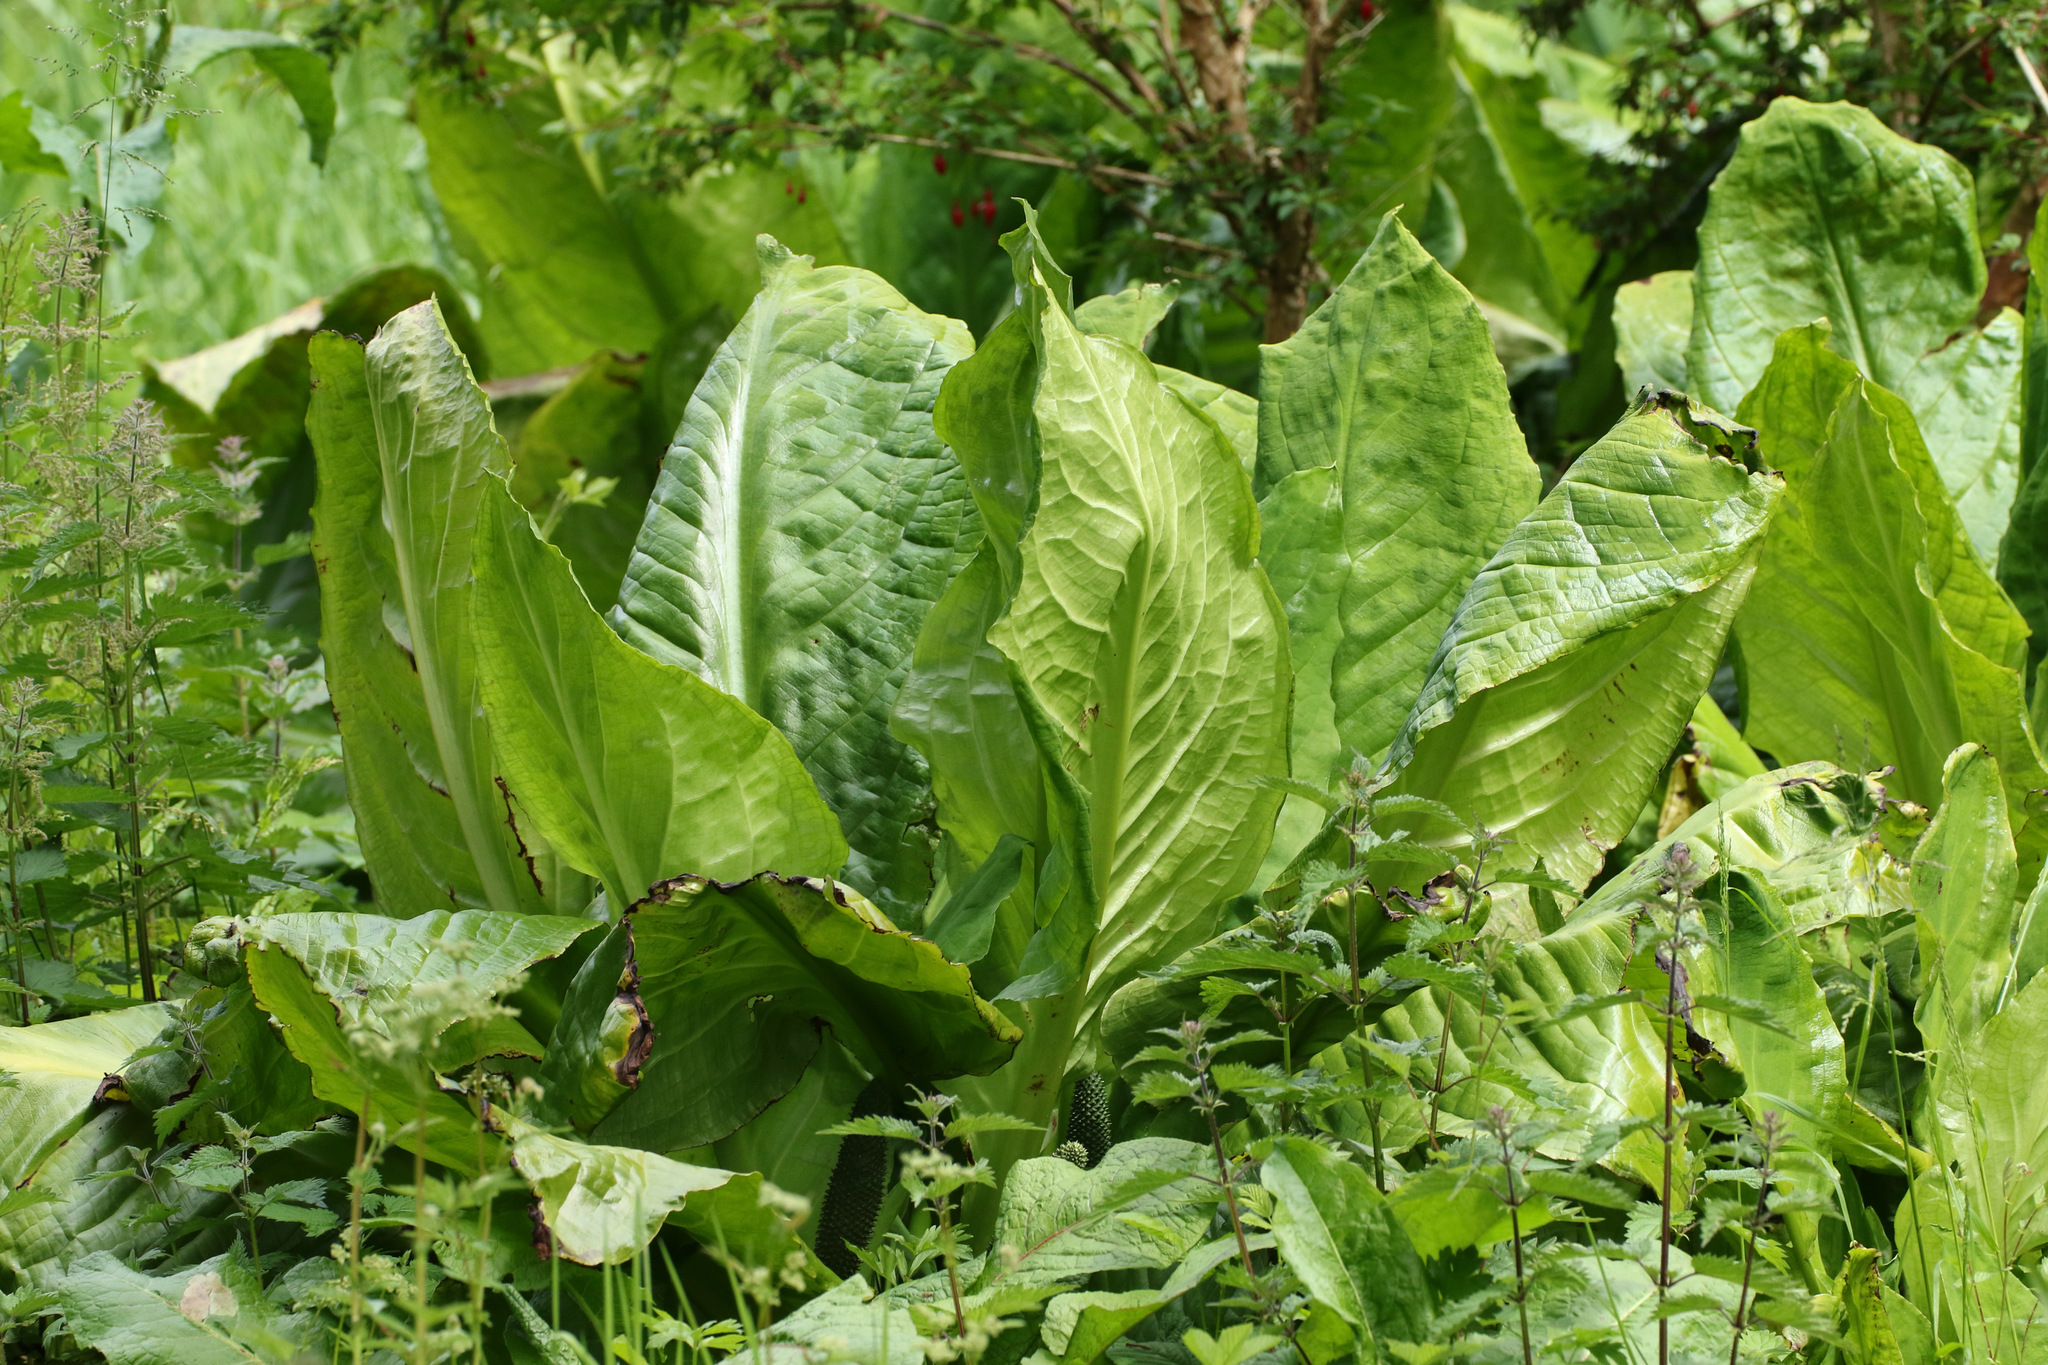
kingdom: Plantae
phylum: Tracheophyta
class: Liliopsida
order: Alismatales
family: Araceae
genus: Lysichiton
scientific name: Lysichiton americanus
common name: American skunk cabbage
